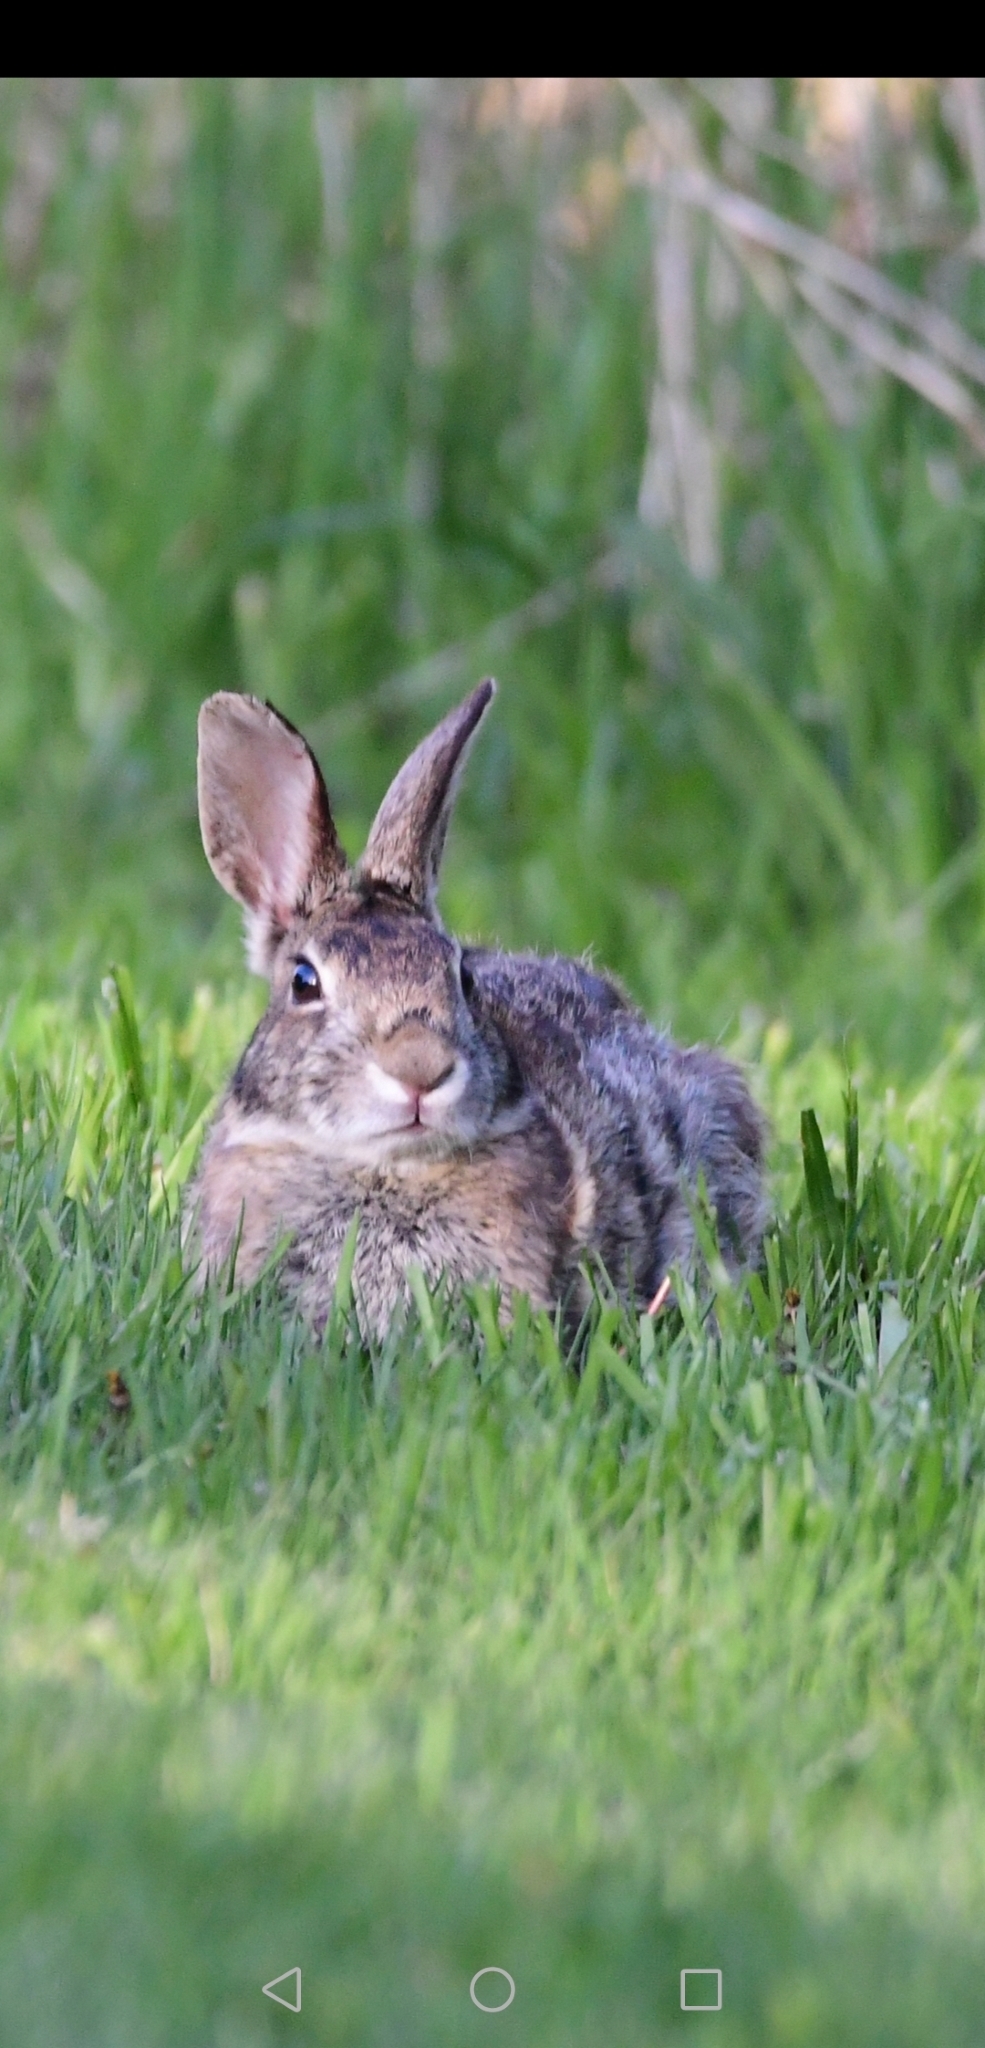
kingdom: Animalia
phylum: Chordata
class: Mammalia
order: Lagomorpha
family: Leporidae
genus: Sylvilagus
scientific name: Sylvilagus floridanus
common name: Eastern cottontail
